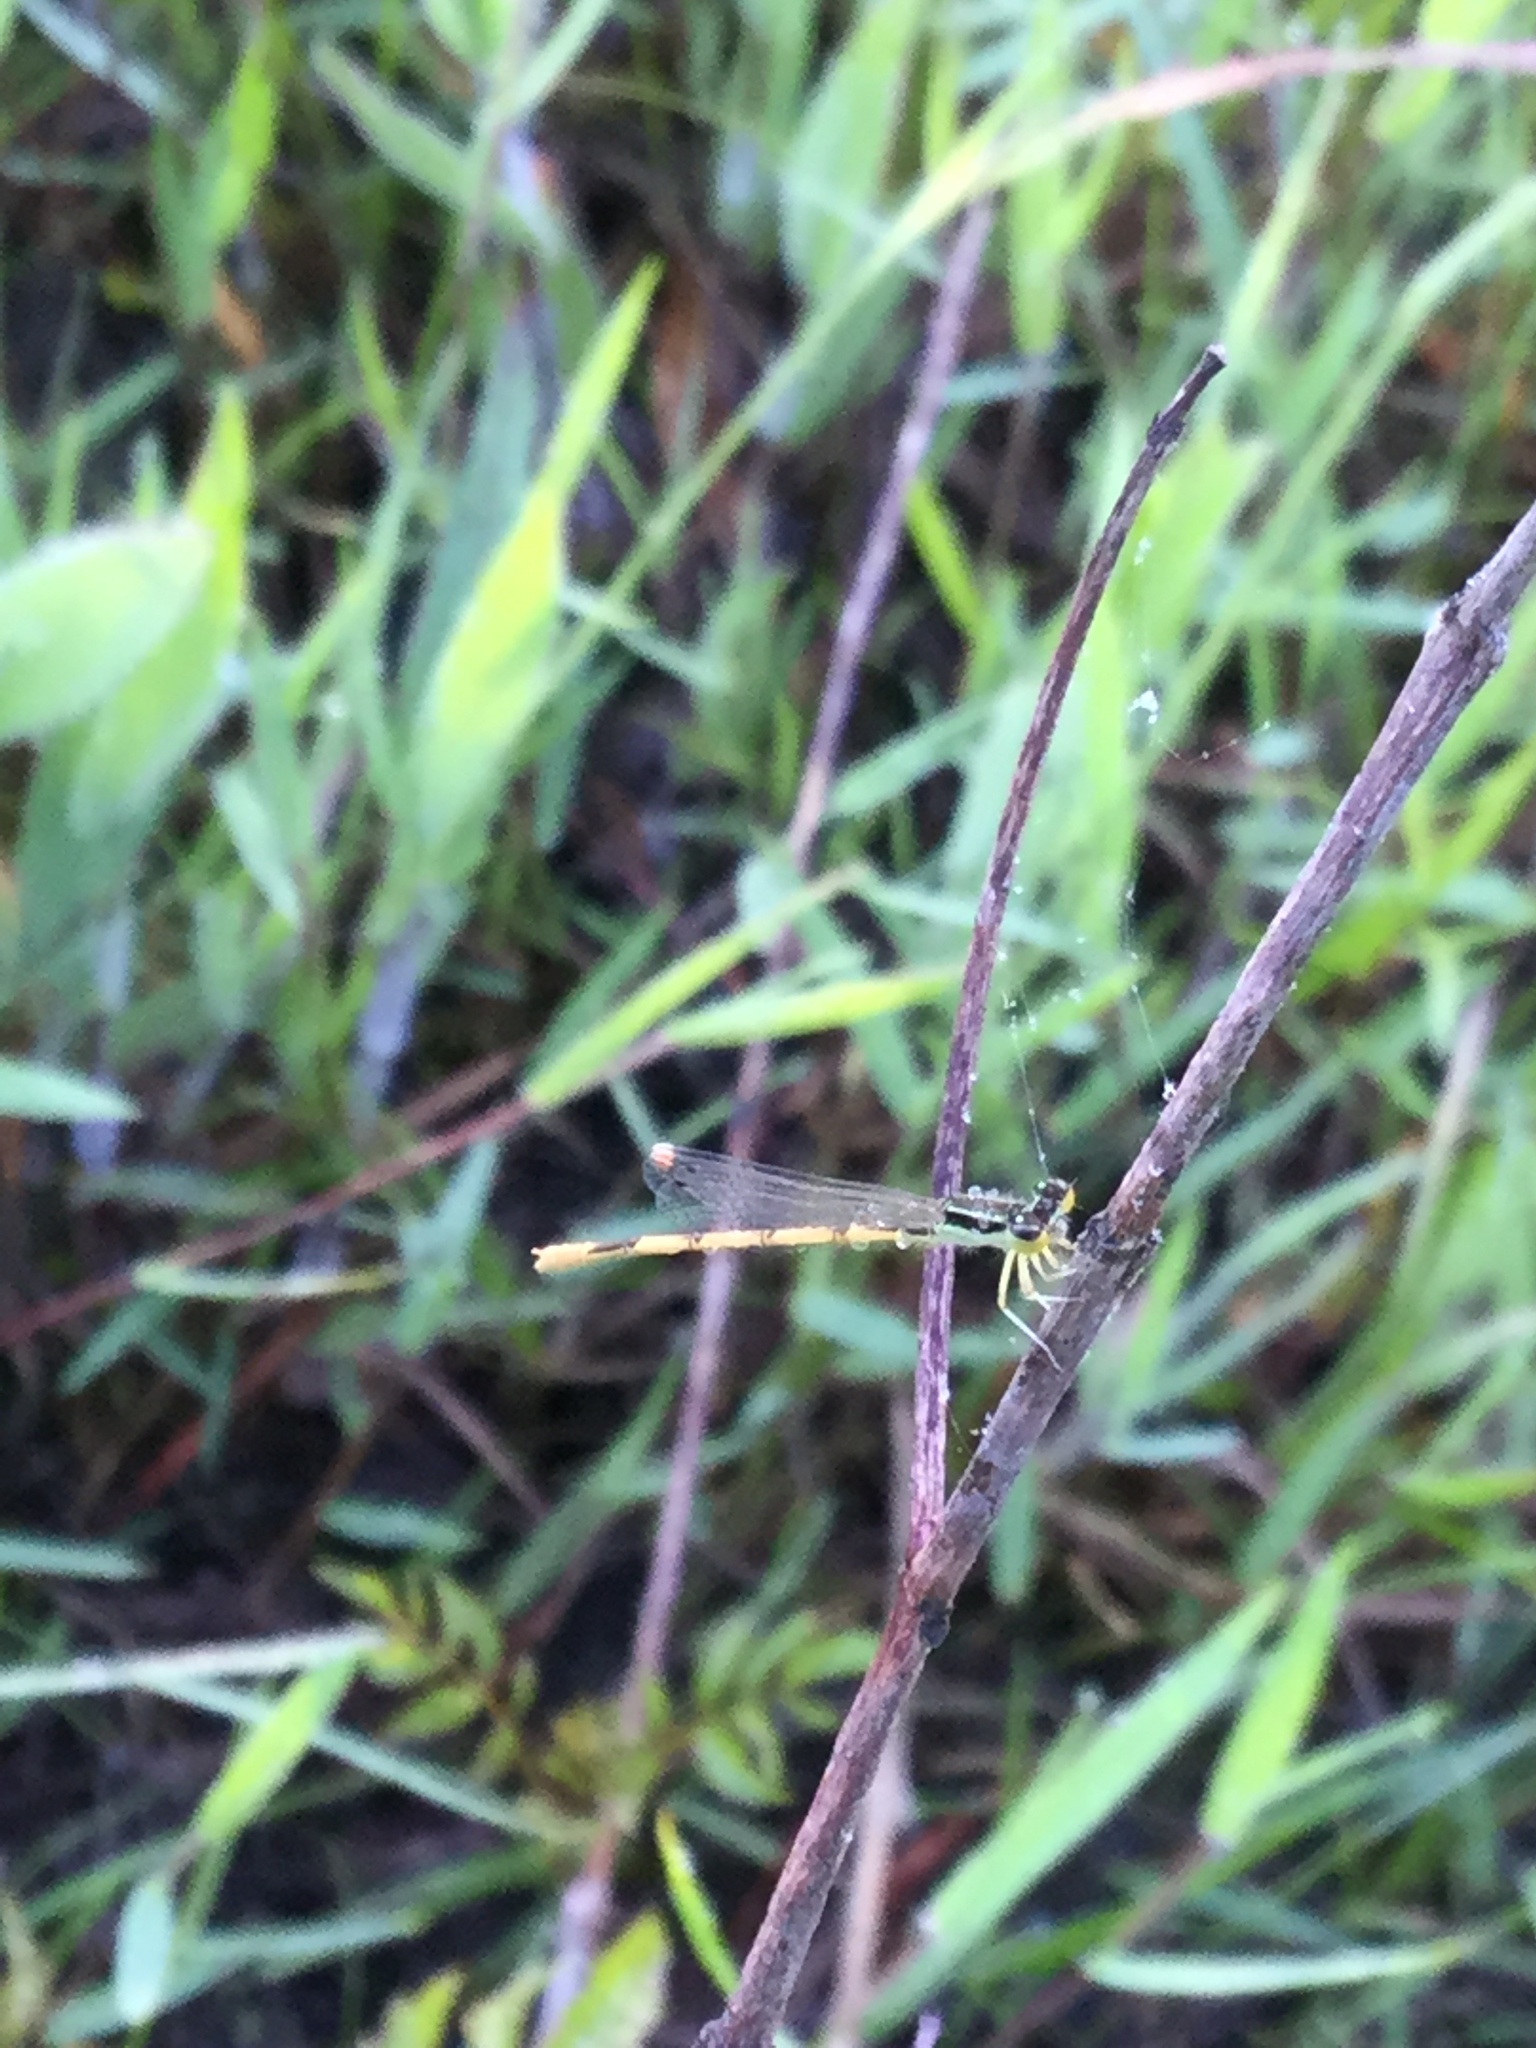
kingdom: Animalia
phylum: Arthropoda
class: Insecta
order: Odonata
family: Coenagrionidae
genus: Ischnura
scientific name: Ischnura hastata
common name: Citrine forktail
